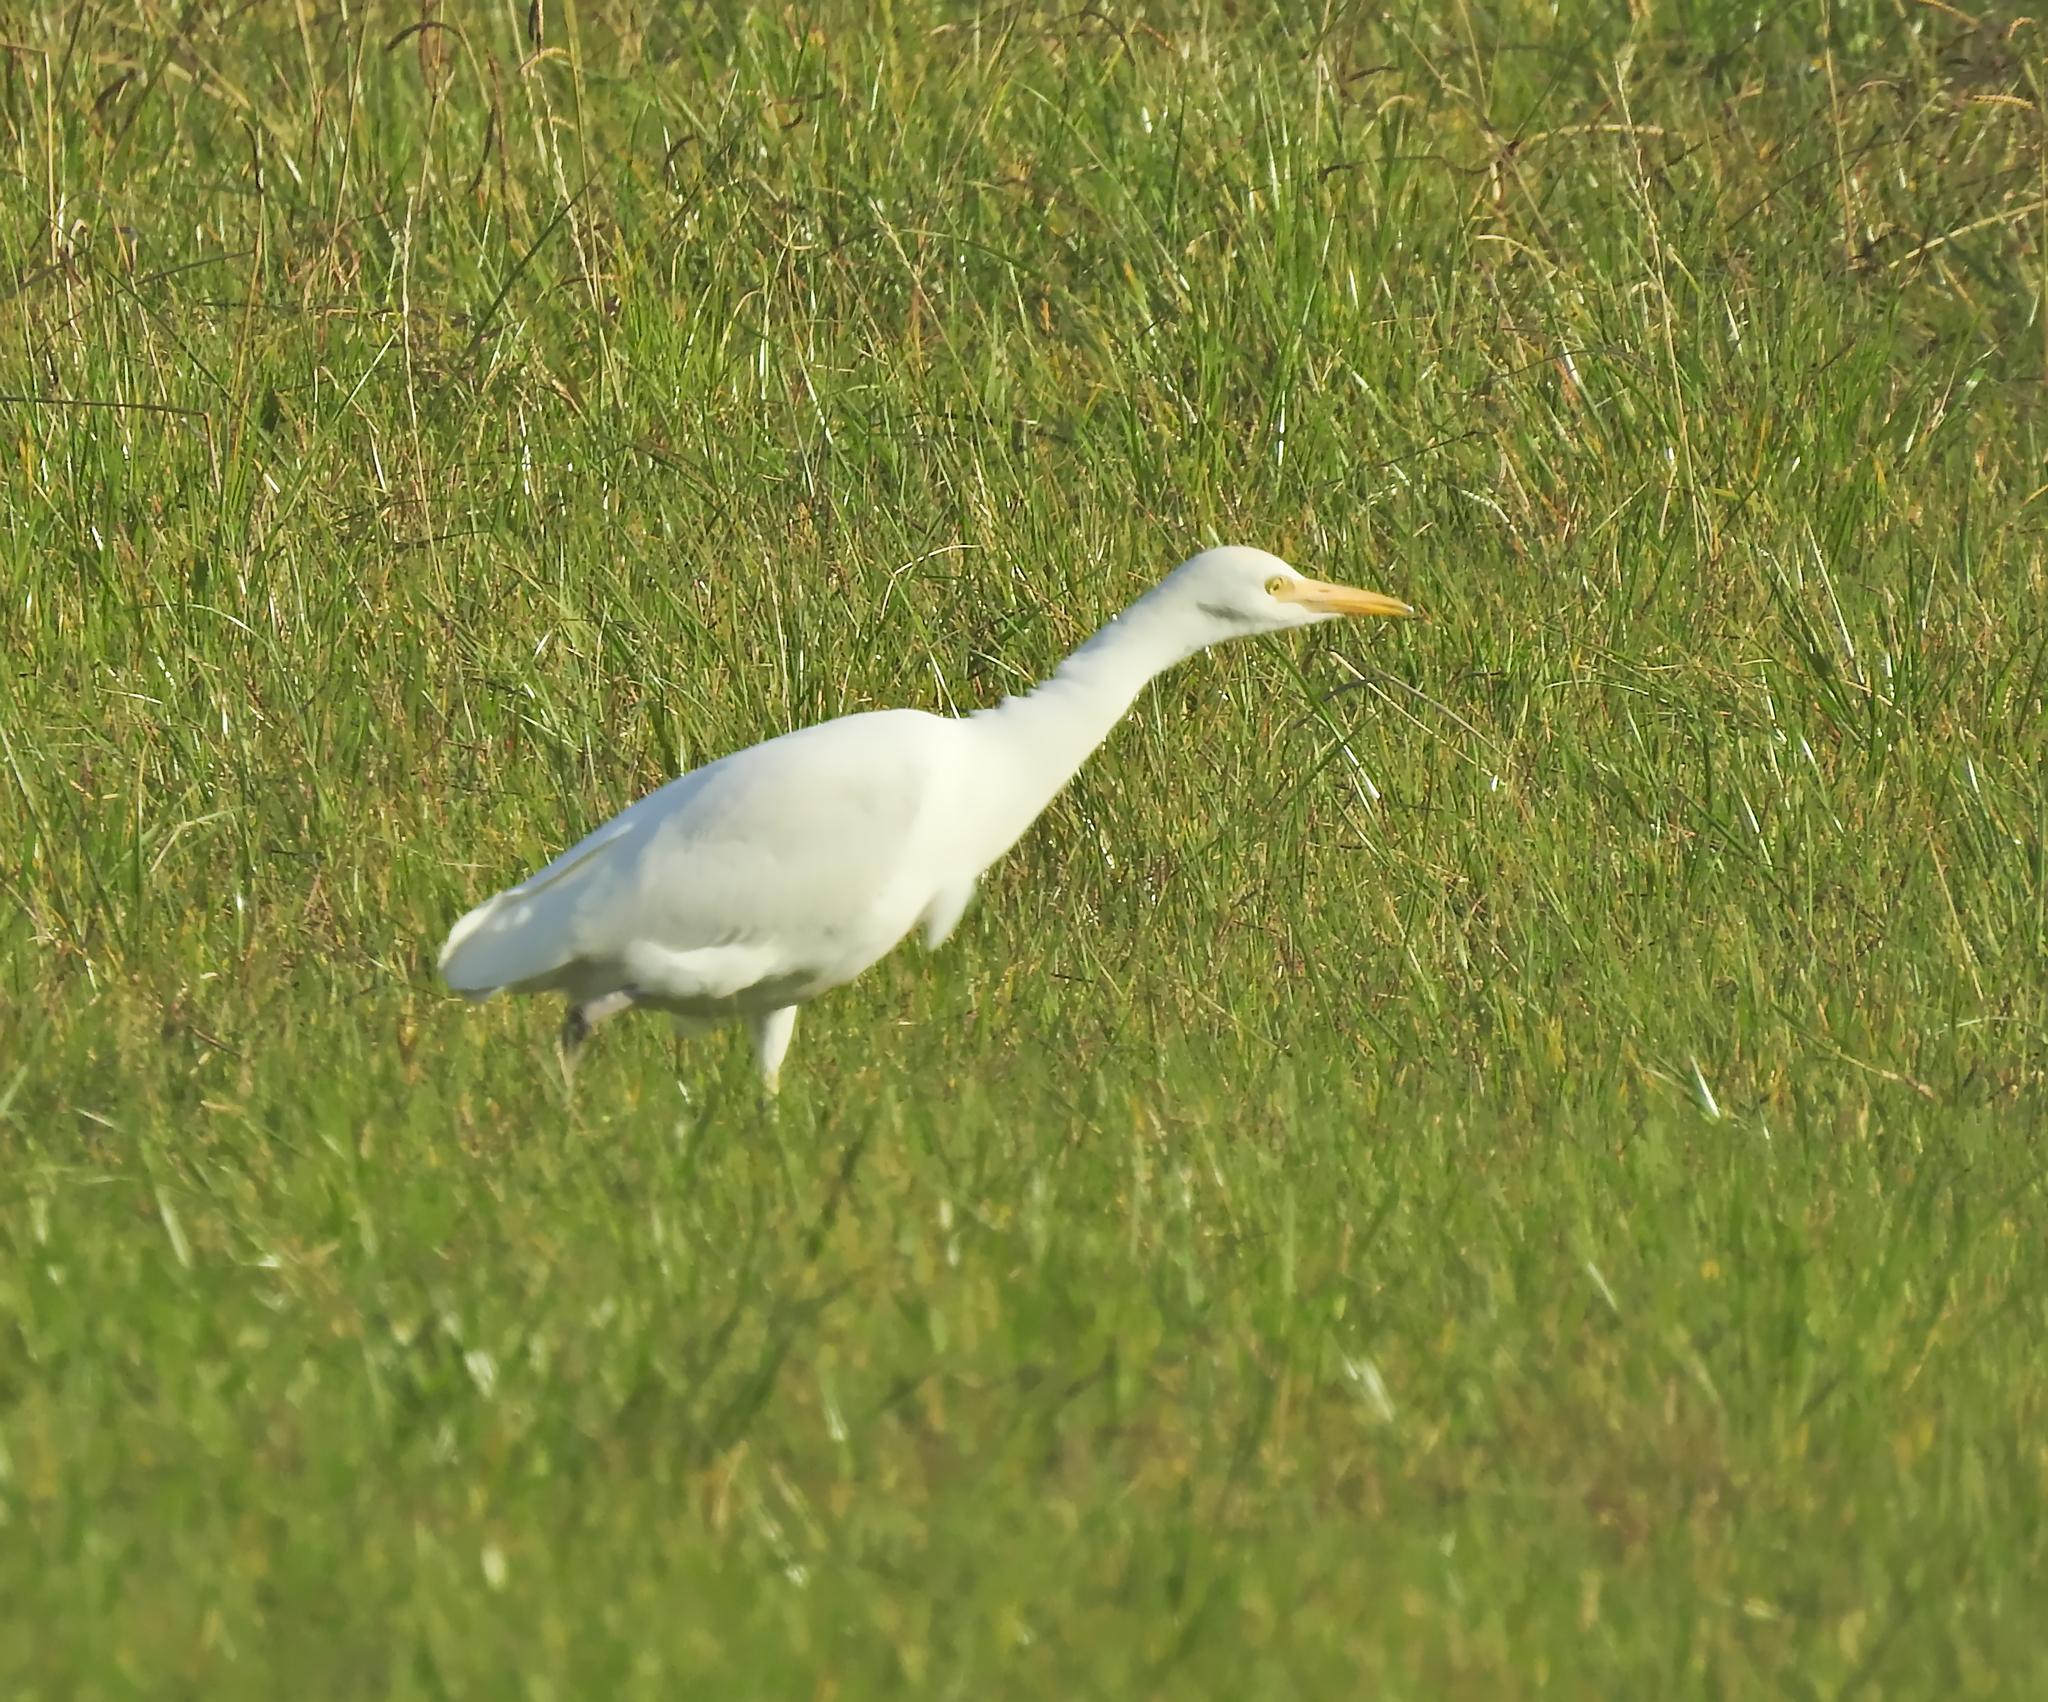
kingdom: Animalia
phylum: Chordata
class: Aves
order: Pelecaniformes
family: Ardeidae
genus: Bubulcus
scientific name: Bubulcus ibis
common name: Cattle egret
